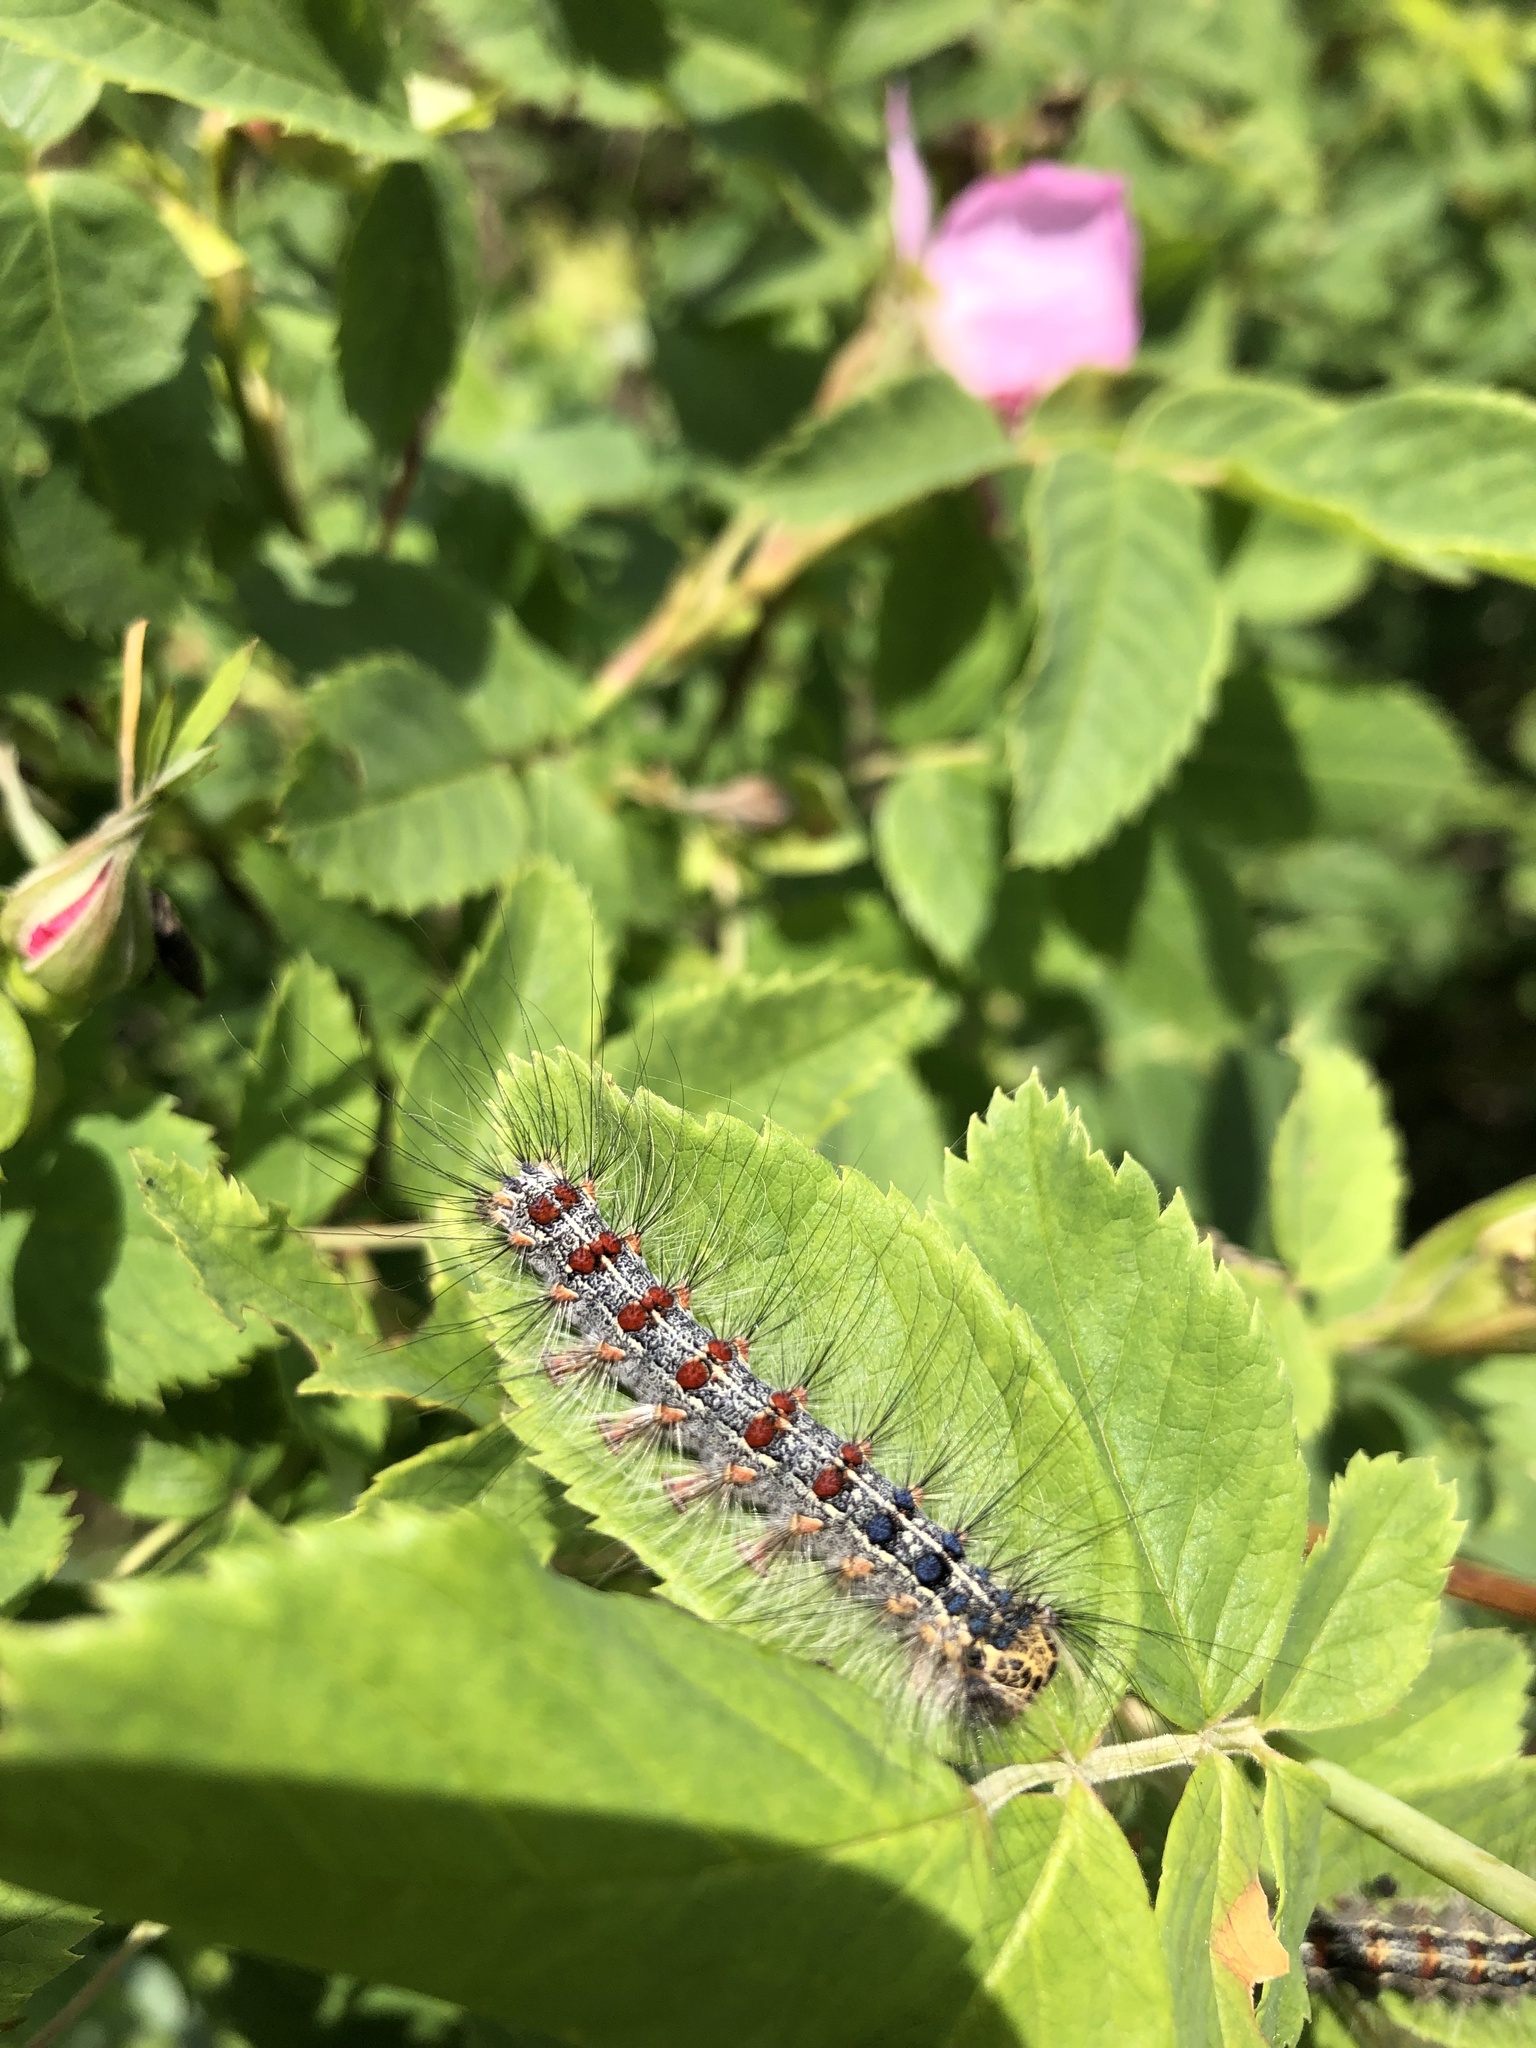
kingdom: Animalia
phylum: Arthropoda
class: Insecta
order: Lepidoptera
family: Erebidae
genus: Lymantria
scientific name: Lymantria dispar
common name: Gypsy moth
